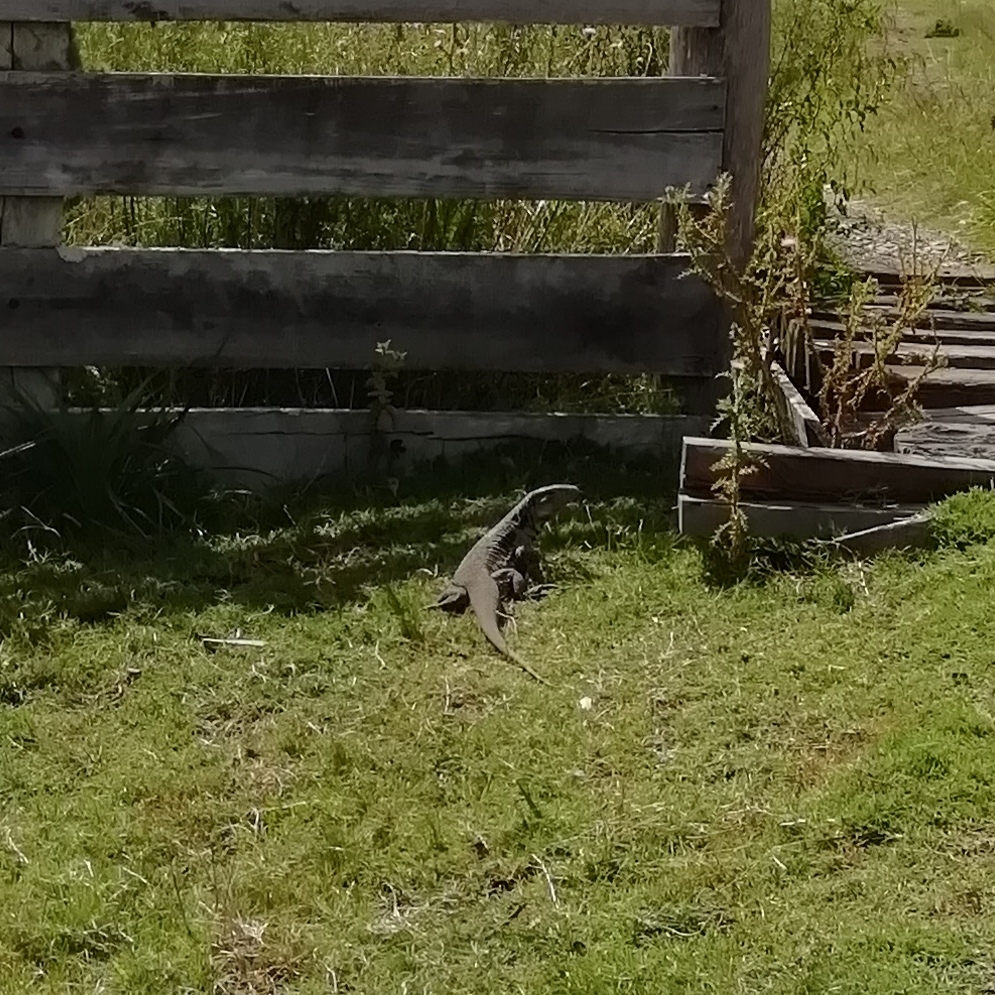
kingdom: Animalia
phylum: Chordata
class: Squamata
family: Teiidae
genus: Salvator
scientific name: Salvator merianae
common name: Argentine black and white tegu
